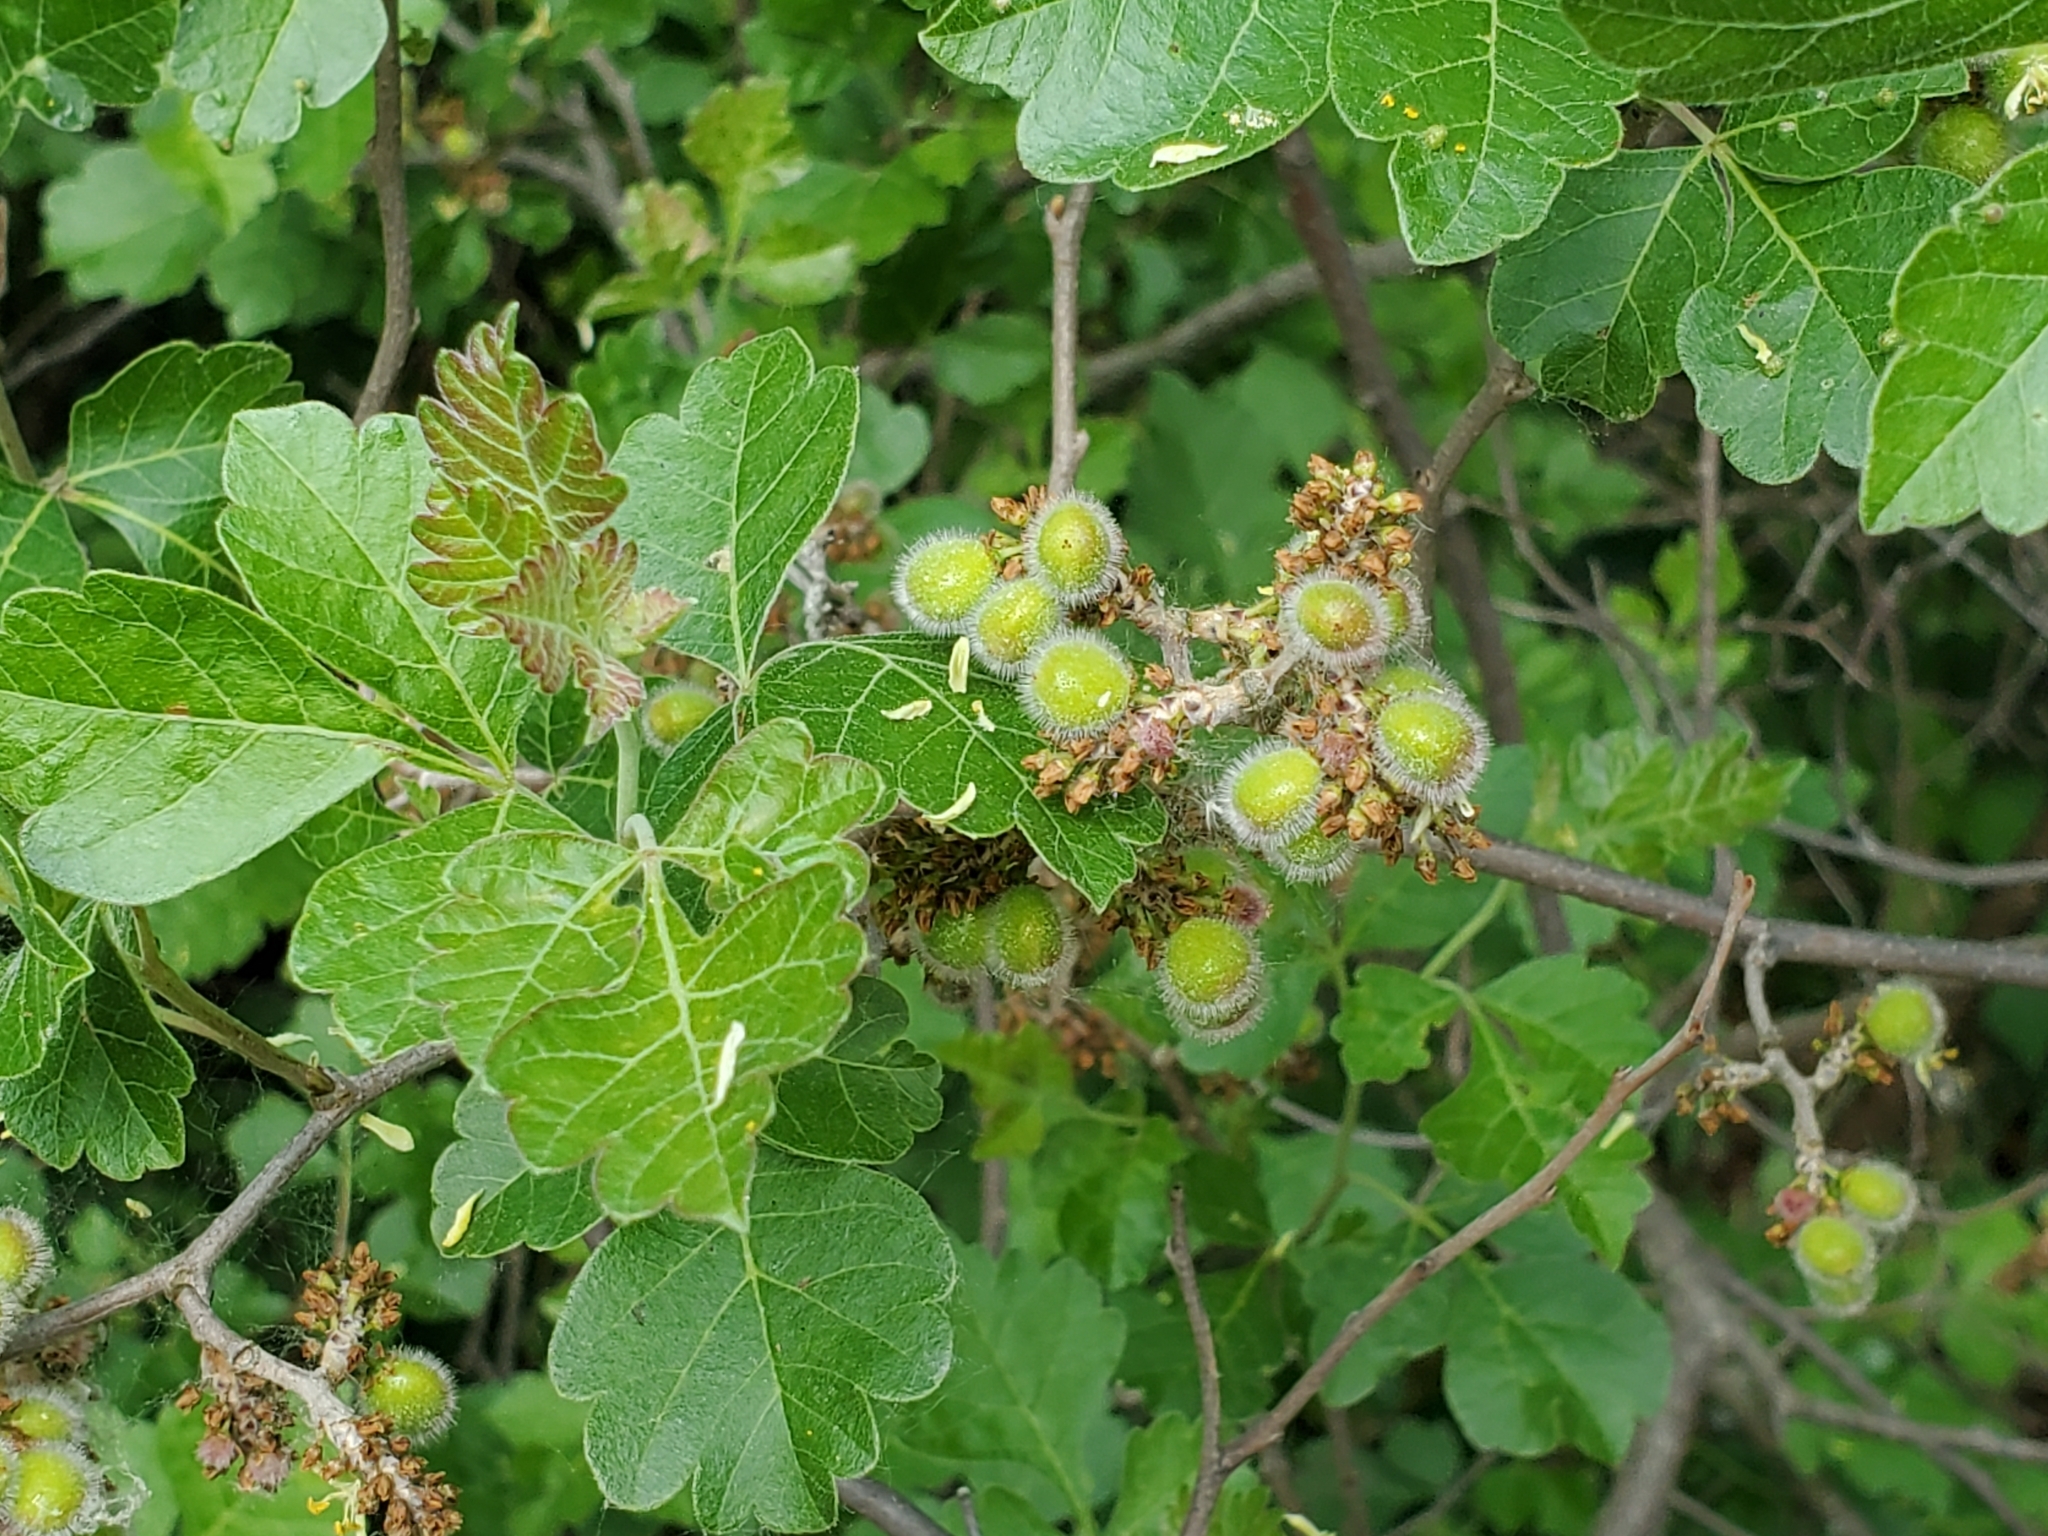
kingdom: Plantae
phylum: Tracheophyta
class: Magnoliopsida
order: Sapindales
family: Anacardiaceae
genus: Rhus
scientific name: Rhus aromatica
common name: Aromatic sumac
